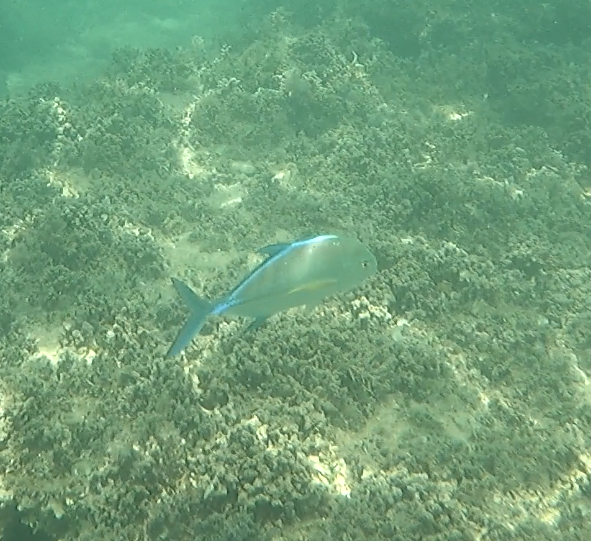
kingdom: Animalia
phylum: Chordata
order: Perciformes
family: Carangidae
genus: Caranx
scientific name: Caranx melampygus
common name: Bluefin trevally
